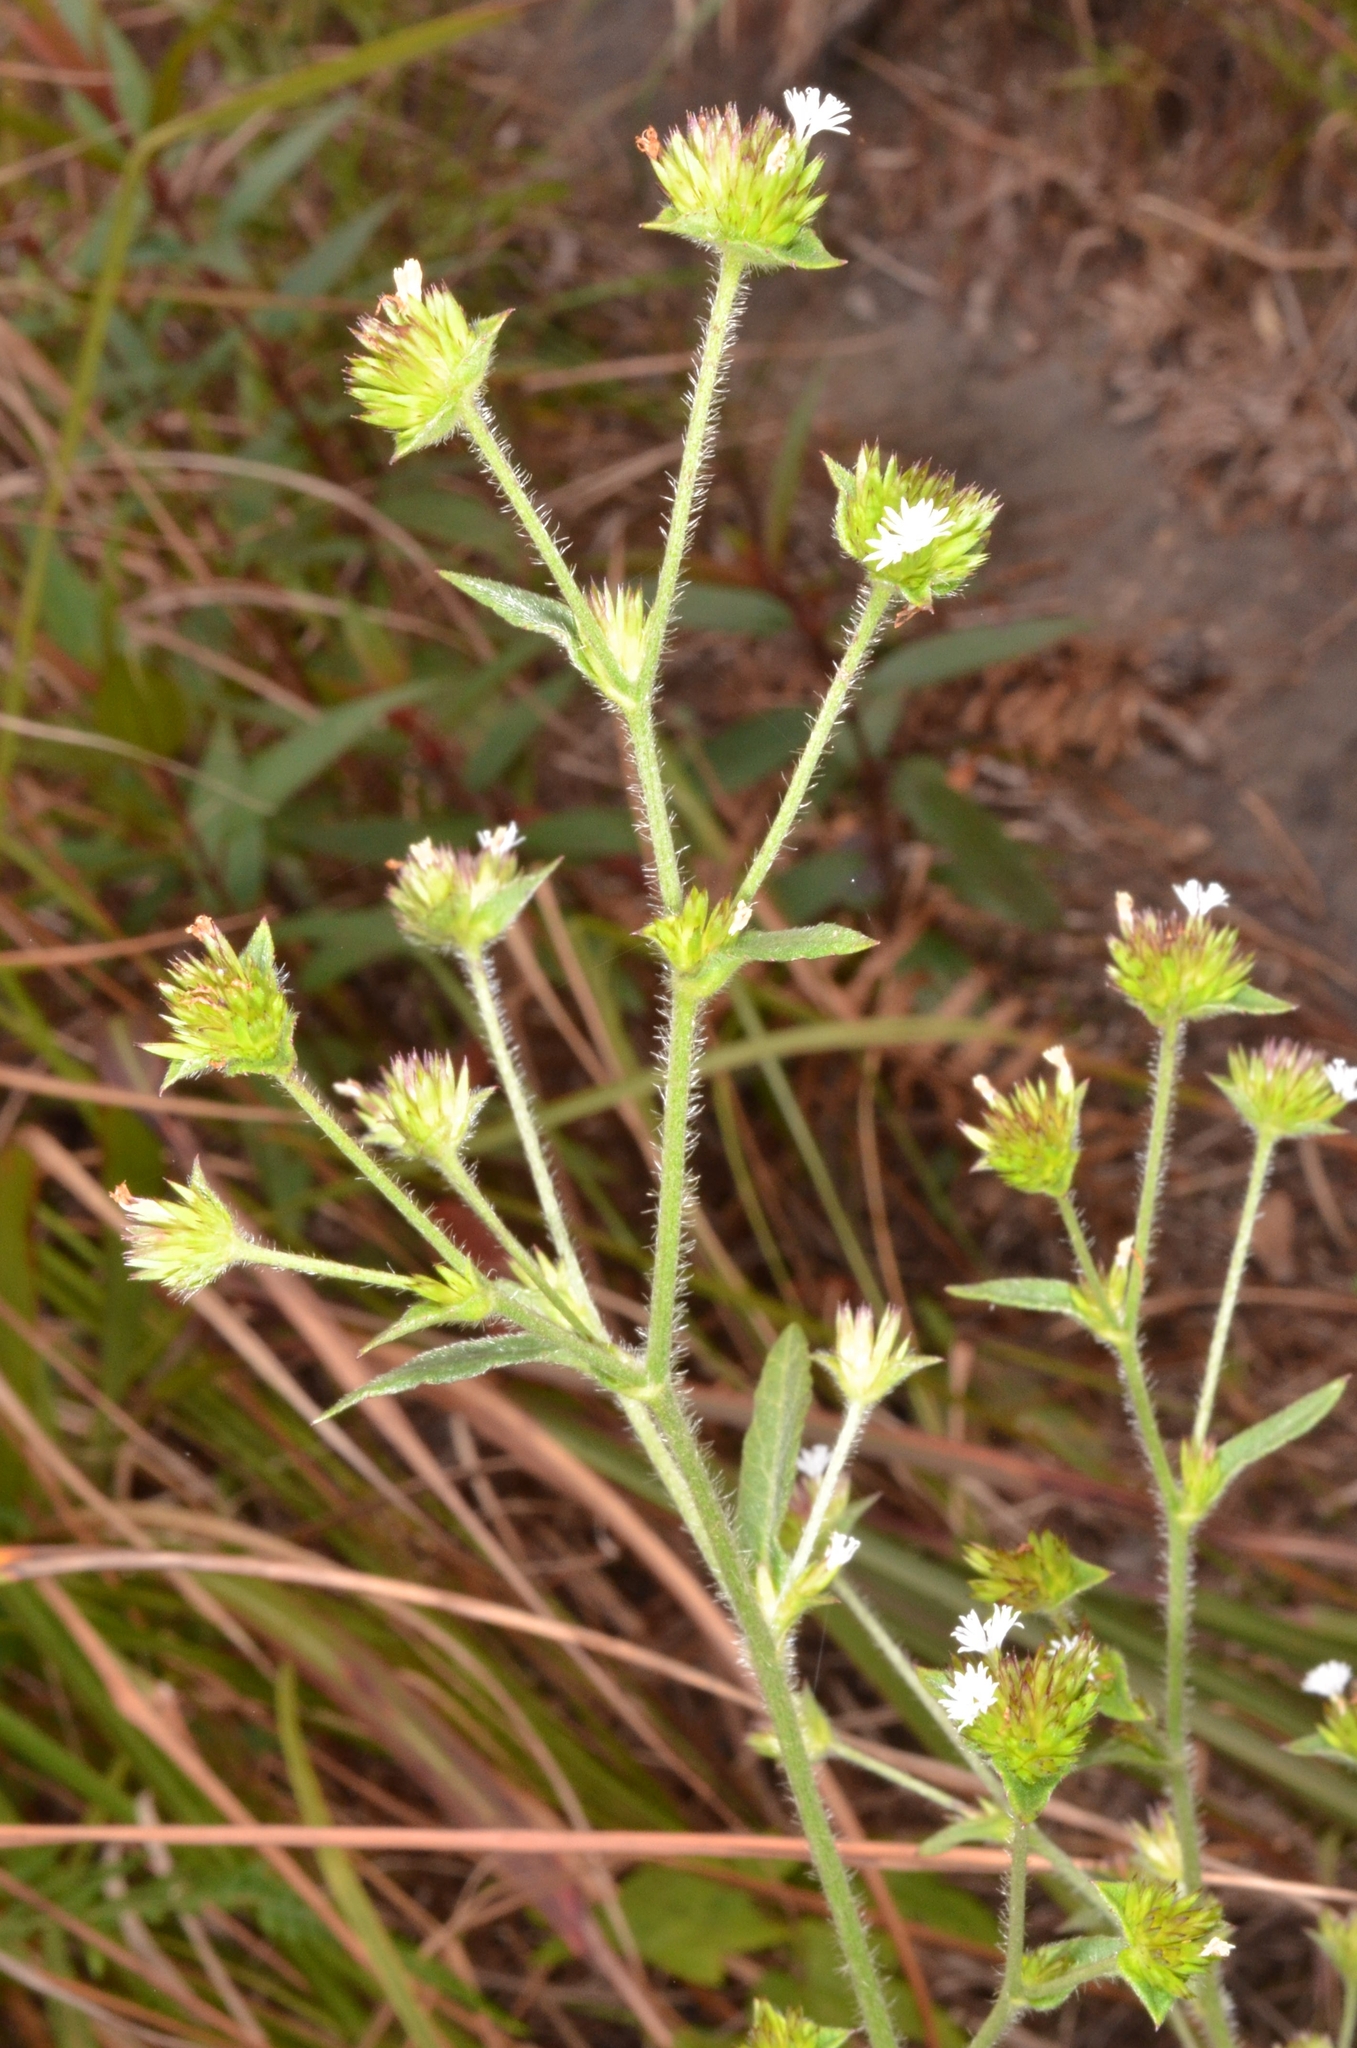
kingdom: Plantae
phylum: Tracheophyta
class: Magnoliopsida
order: Asterales
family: Asteraceae
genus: Elephantopus
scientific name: Elephantopus mollis
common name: Soft elephantsfoot
